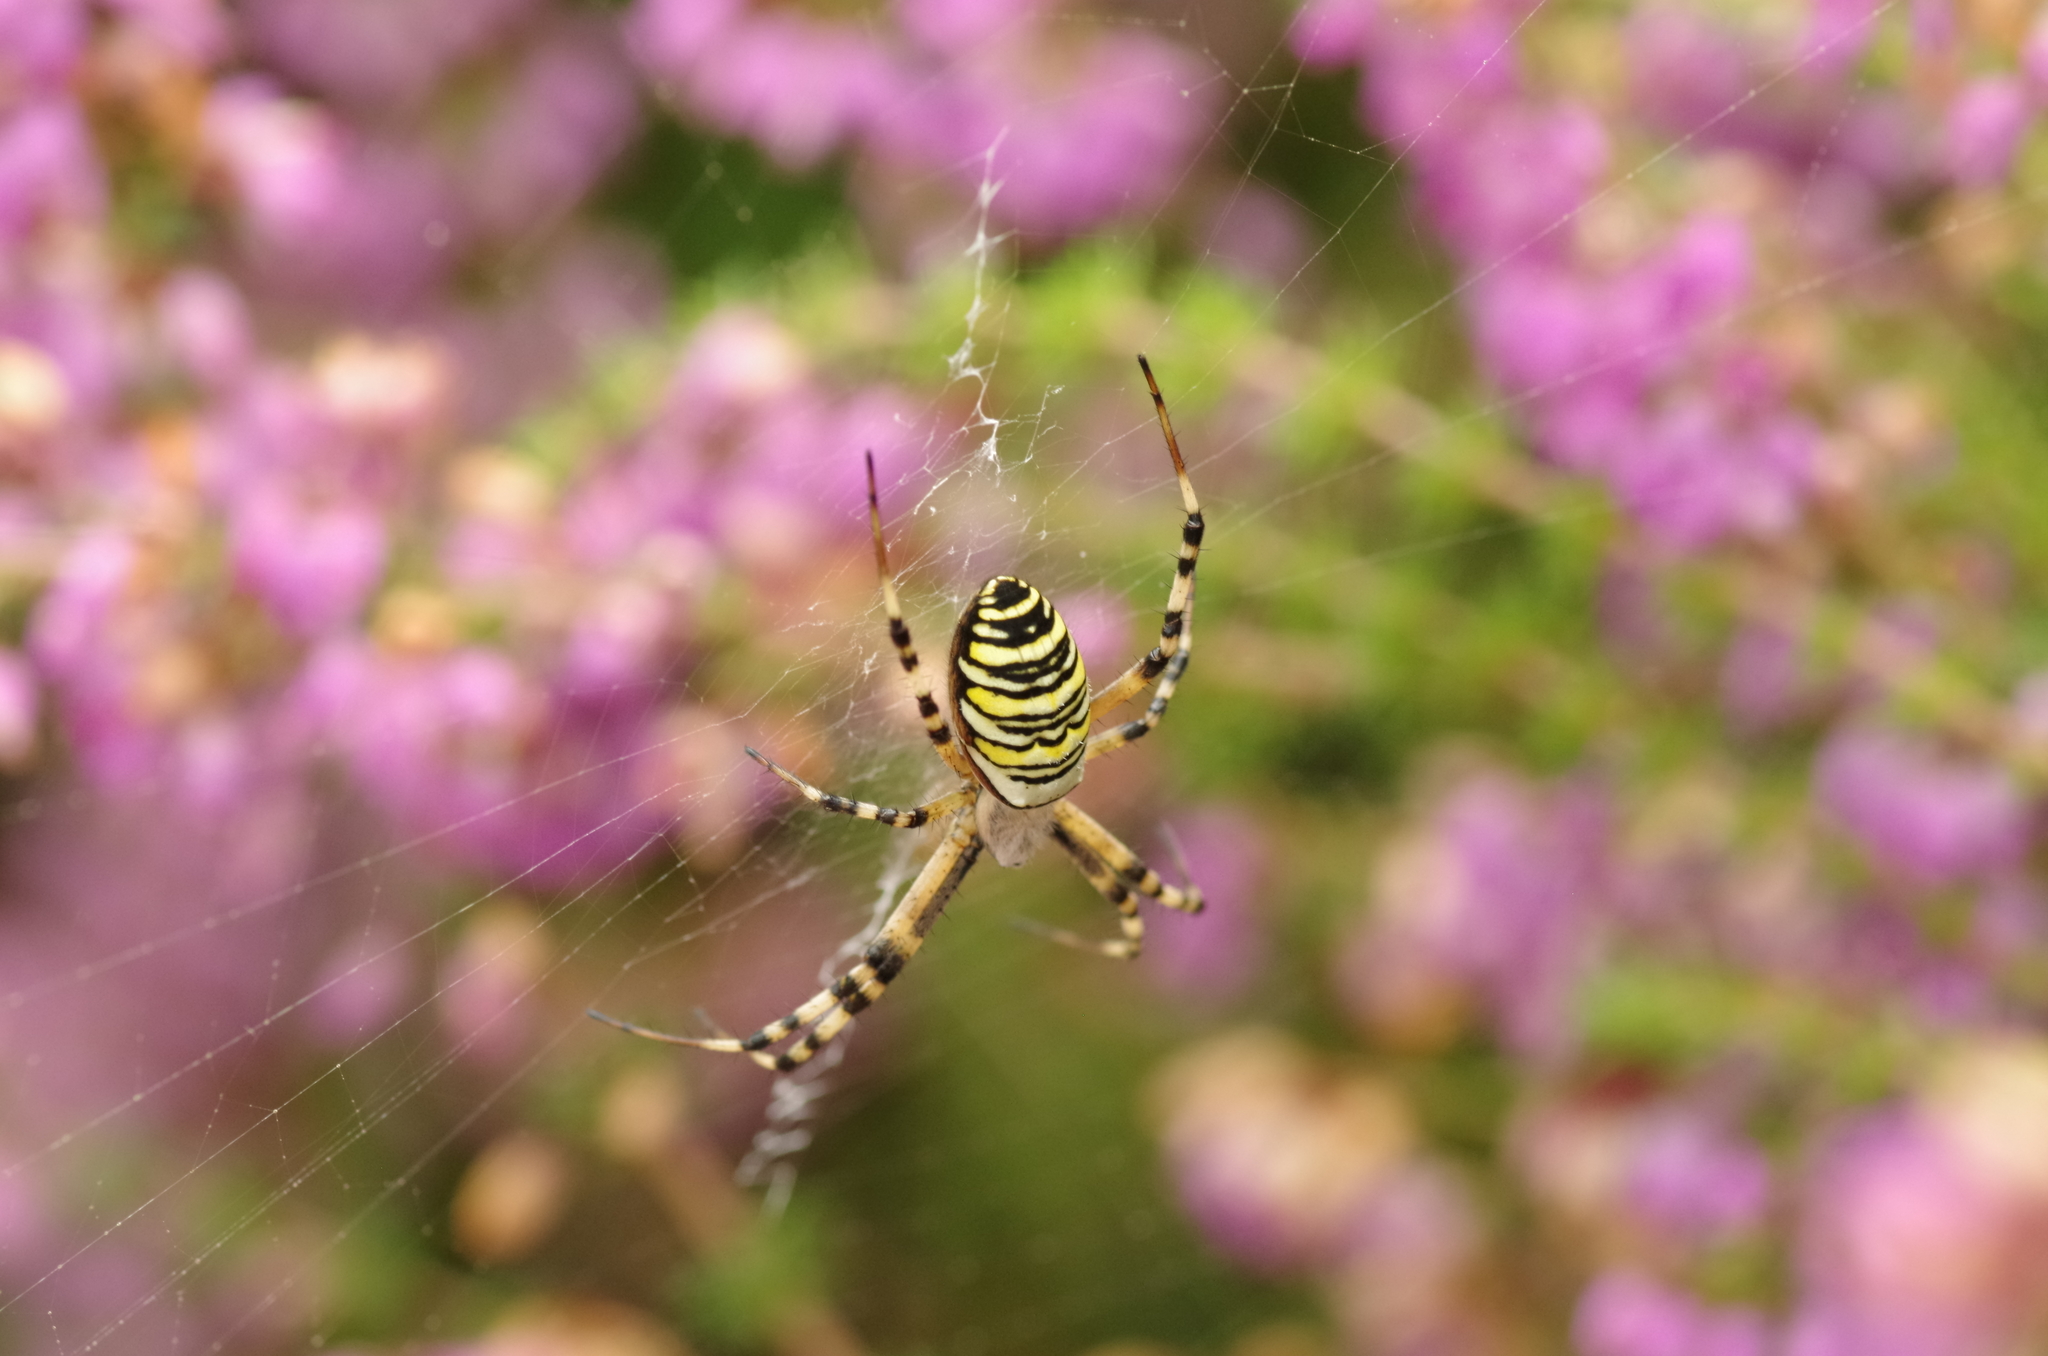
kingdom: Animalia
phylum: Arthropoda
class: Arachnida
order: Araneae
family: Araneidae
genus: Argiope
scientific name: Argiope bruennichi
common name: Wasp spider
